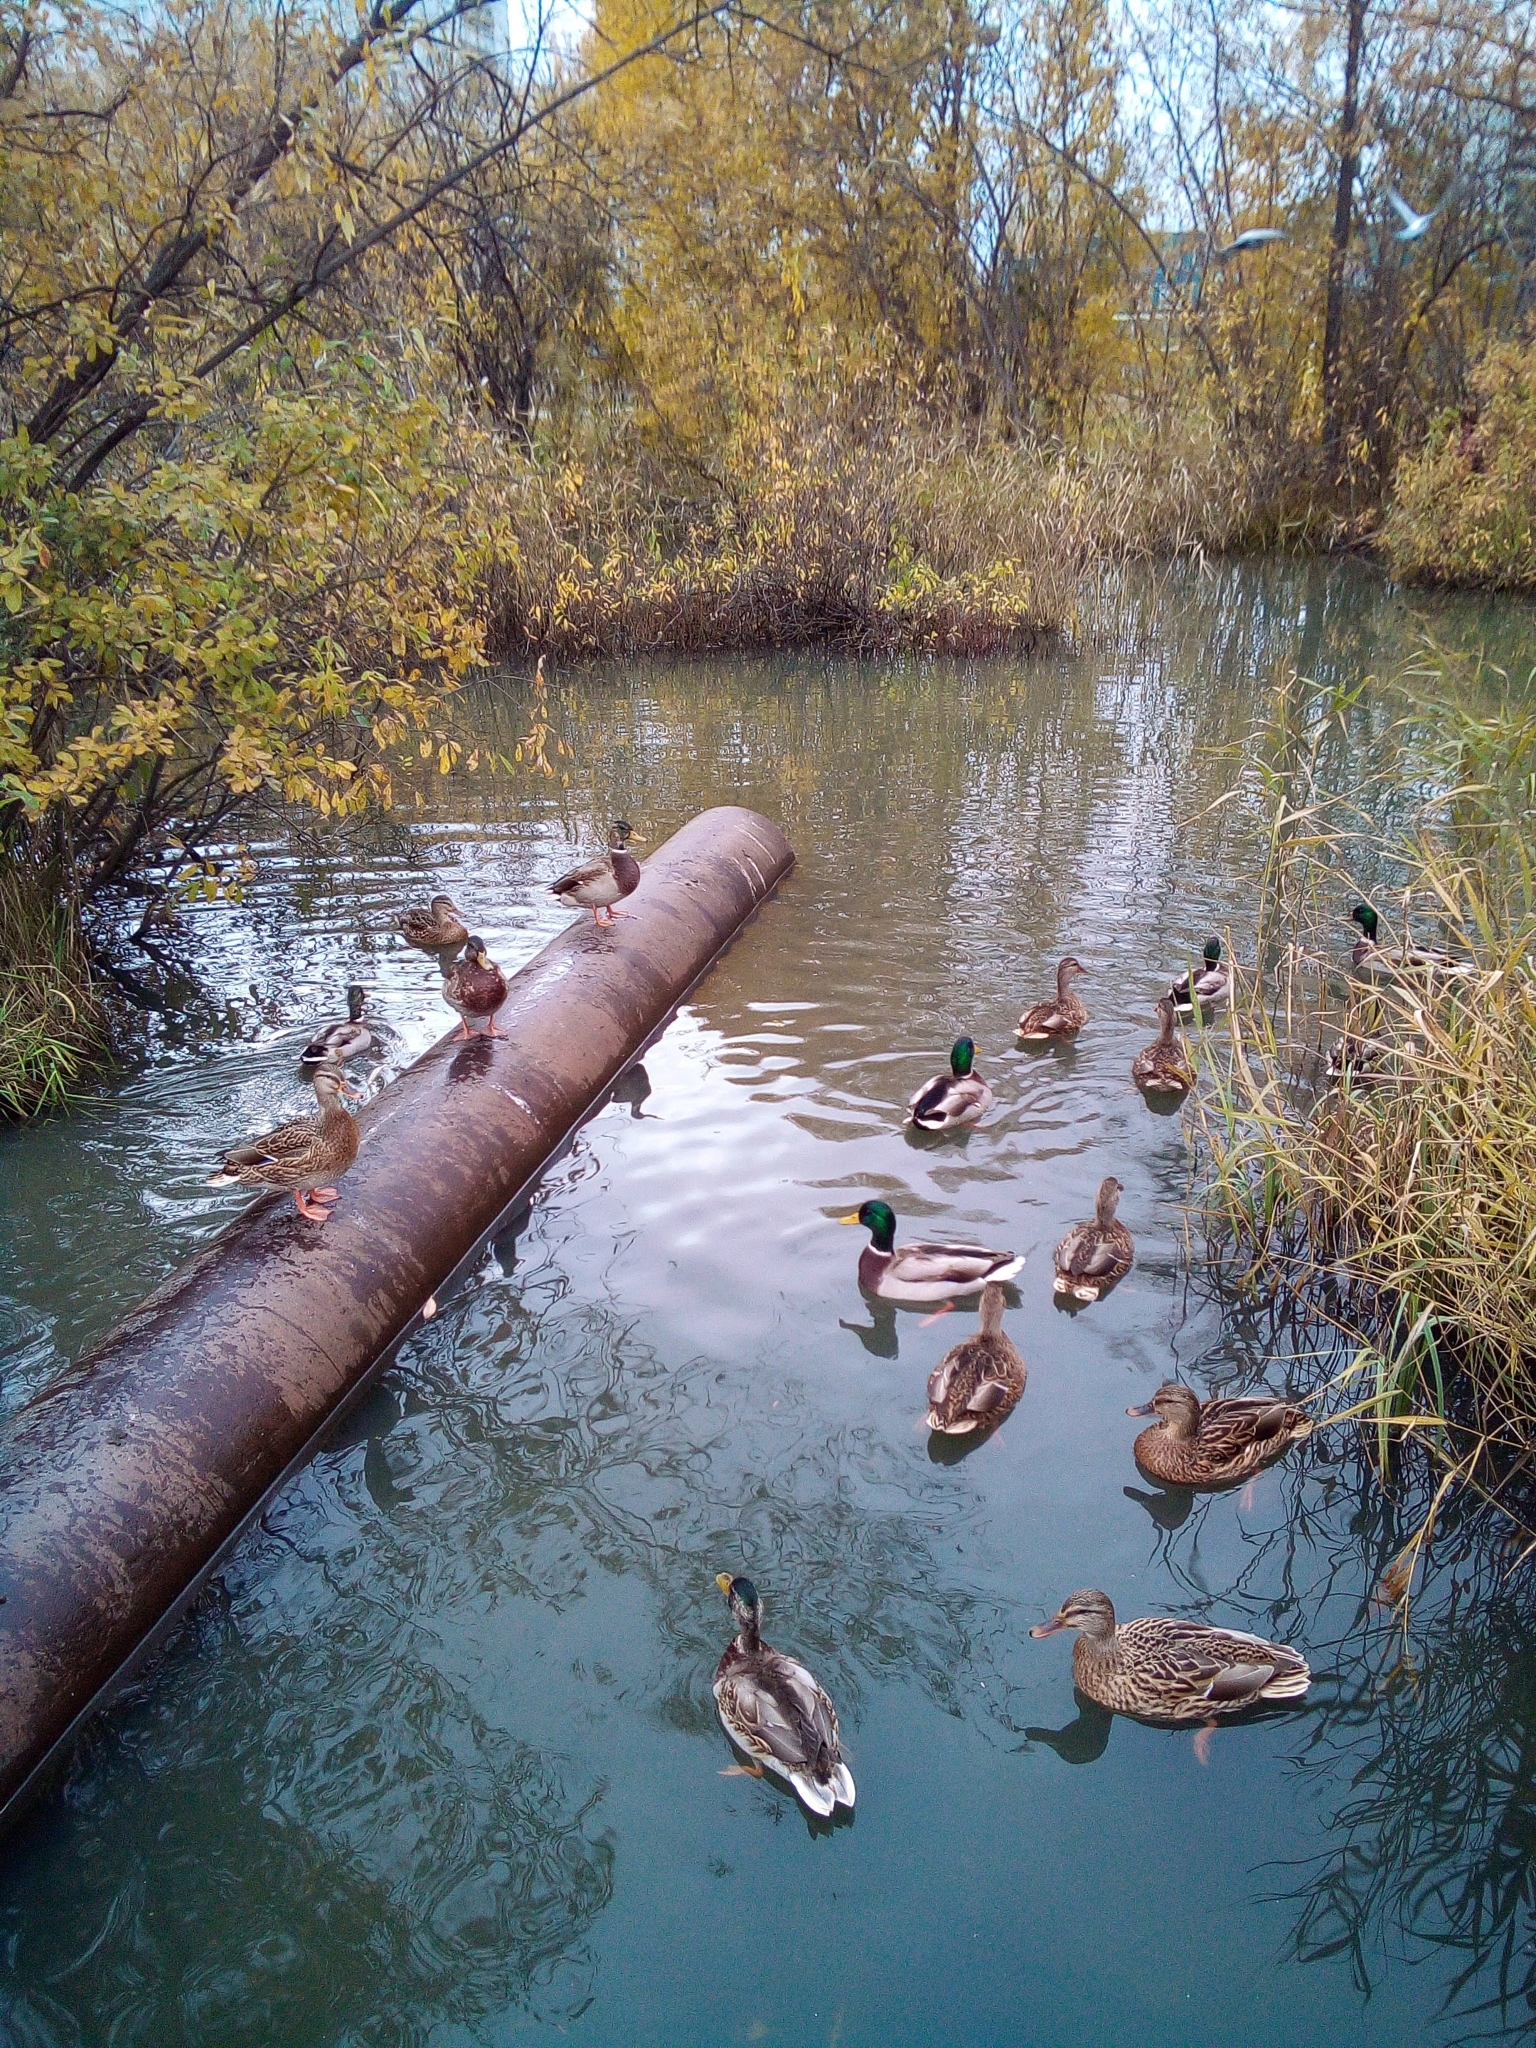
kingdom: Animalia
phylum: Chordata
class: Aves
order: Anseriformes
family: Anatidae
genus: Anas
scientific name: Anas platyrhynchos
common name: Mallard
